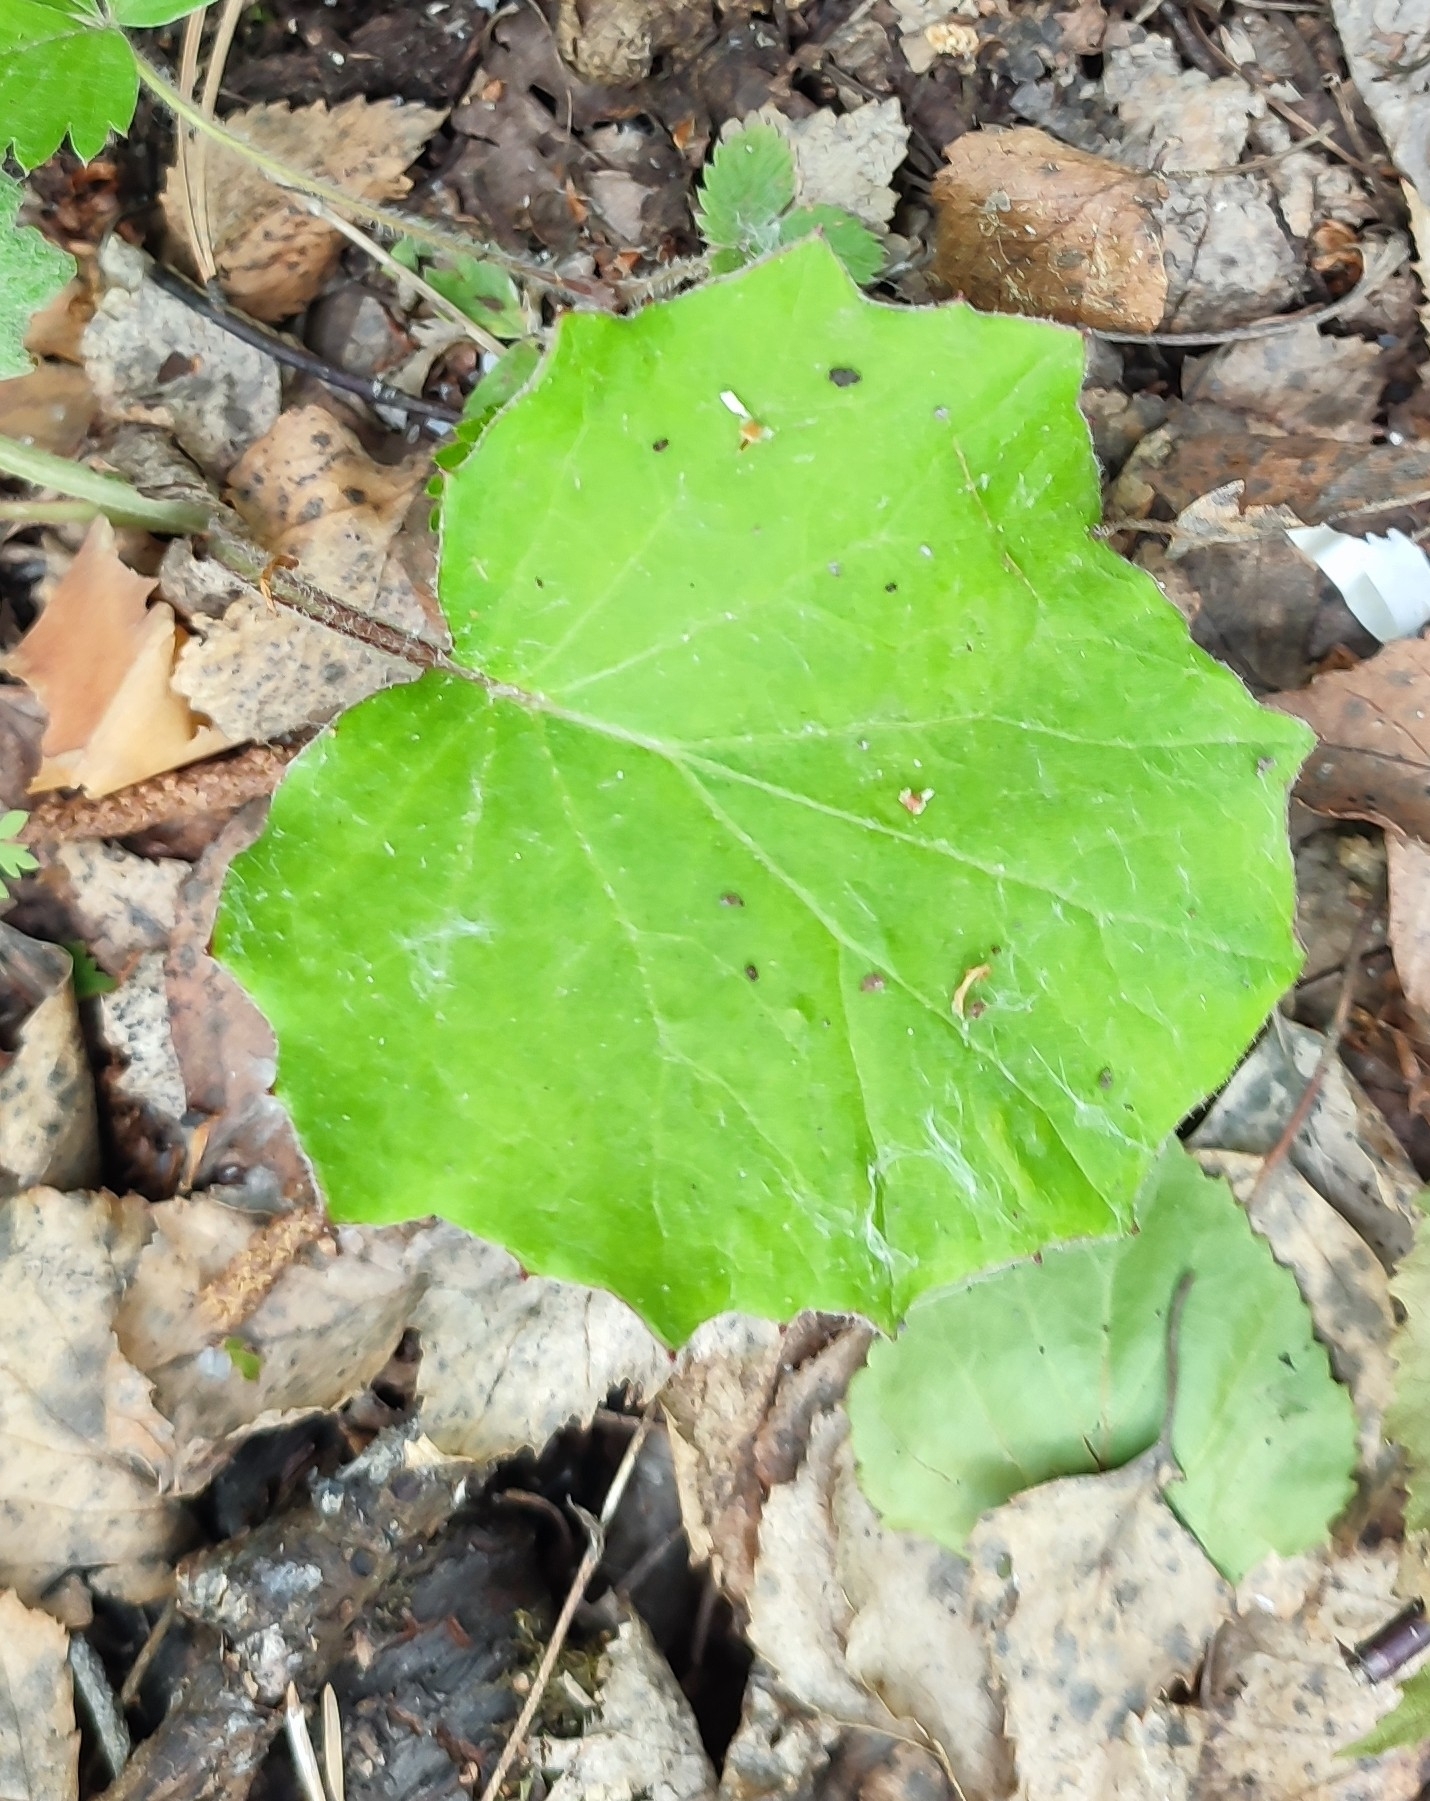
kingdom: Plantae
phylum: Tracheophyta
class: Magnoliopsida
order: Asterales
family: Asteraceae
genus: Tussilago
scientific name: Tussilago farfara
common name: Coltsfoot
